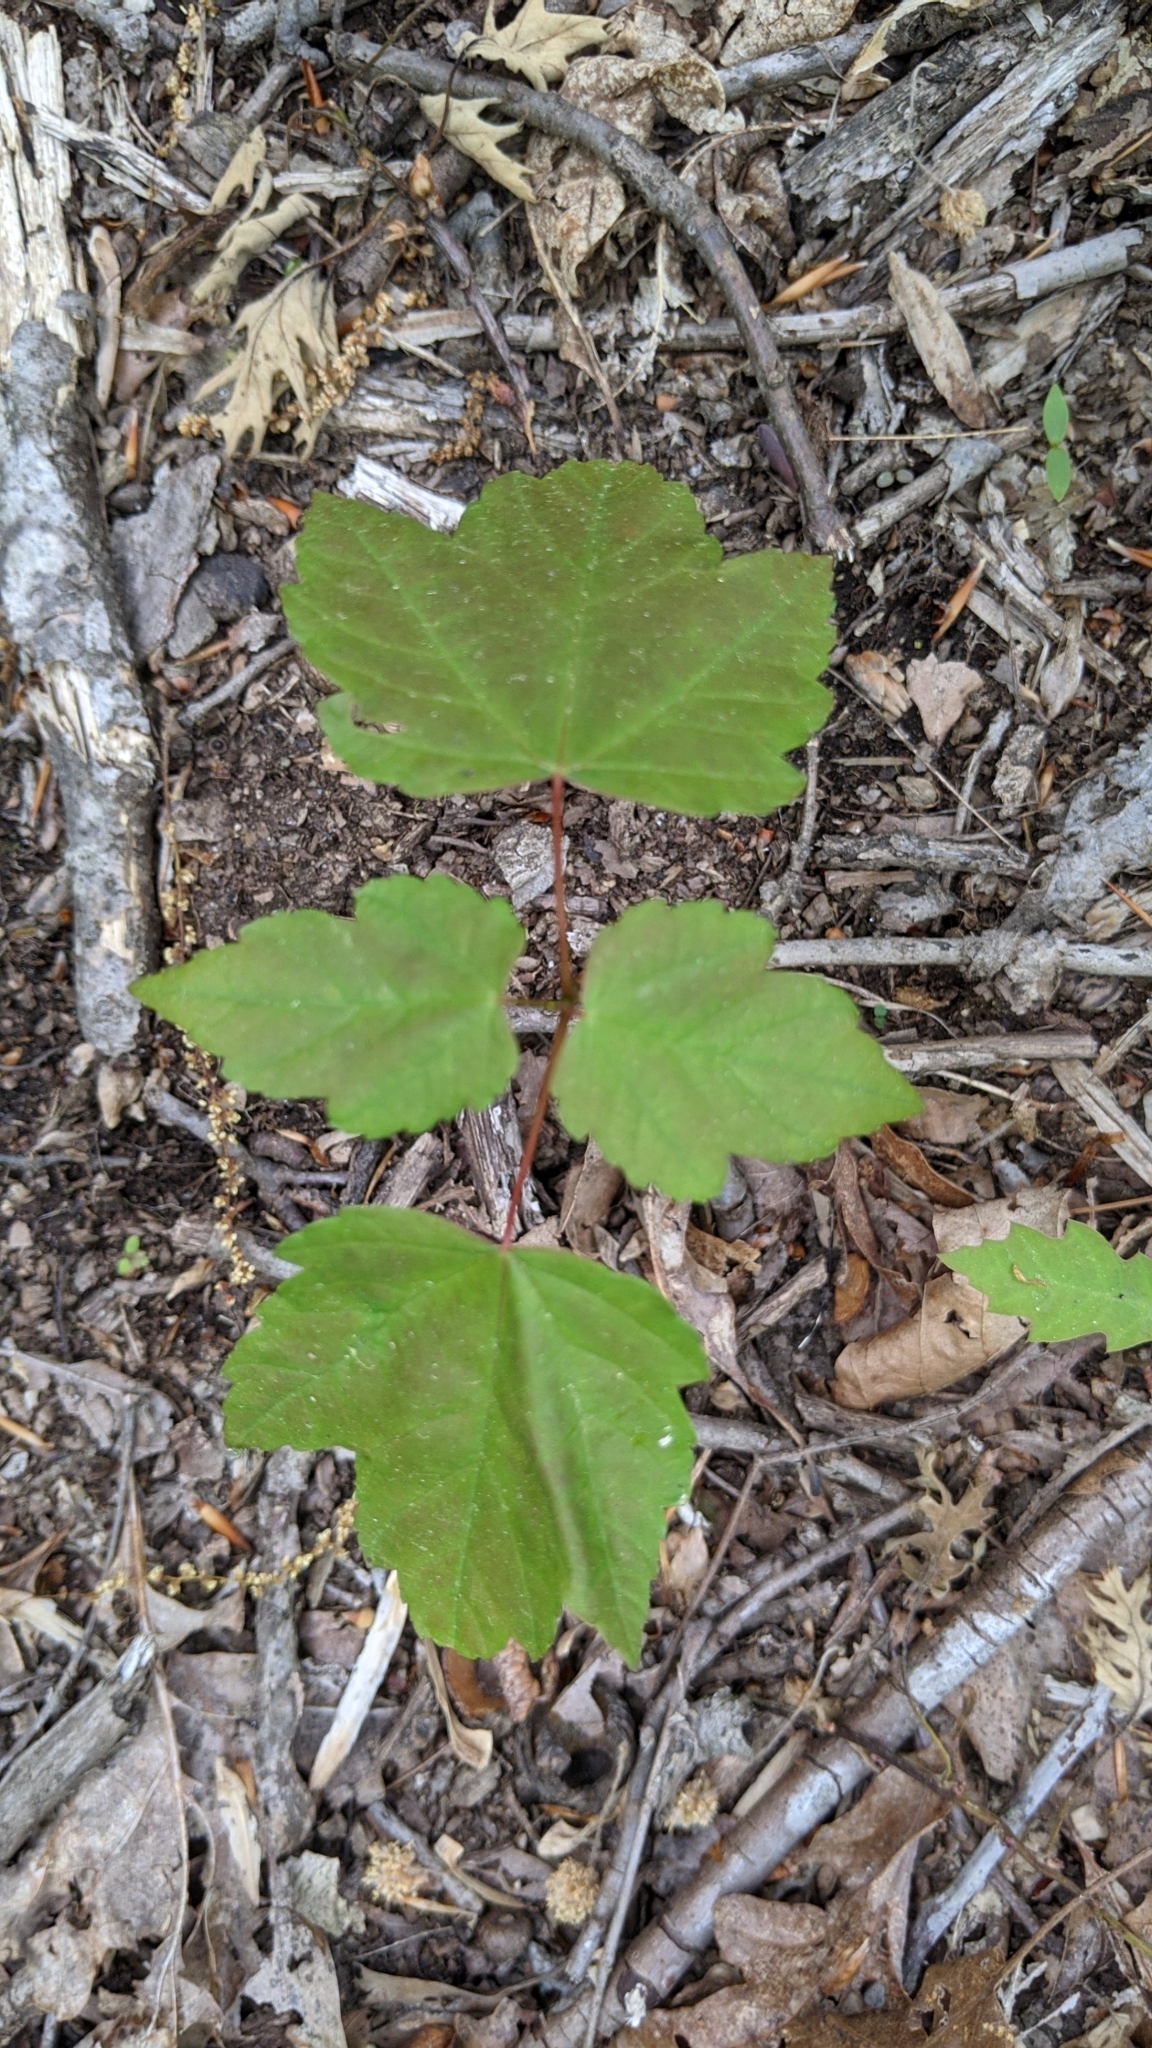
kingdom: Plantae
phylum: Tracheophyta
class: Magnoliopsida
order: Dipsacales
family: Viburnaceae
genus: Viburnum
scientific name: Viburnum acerifolium
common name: Dockmackie
